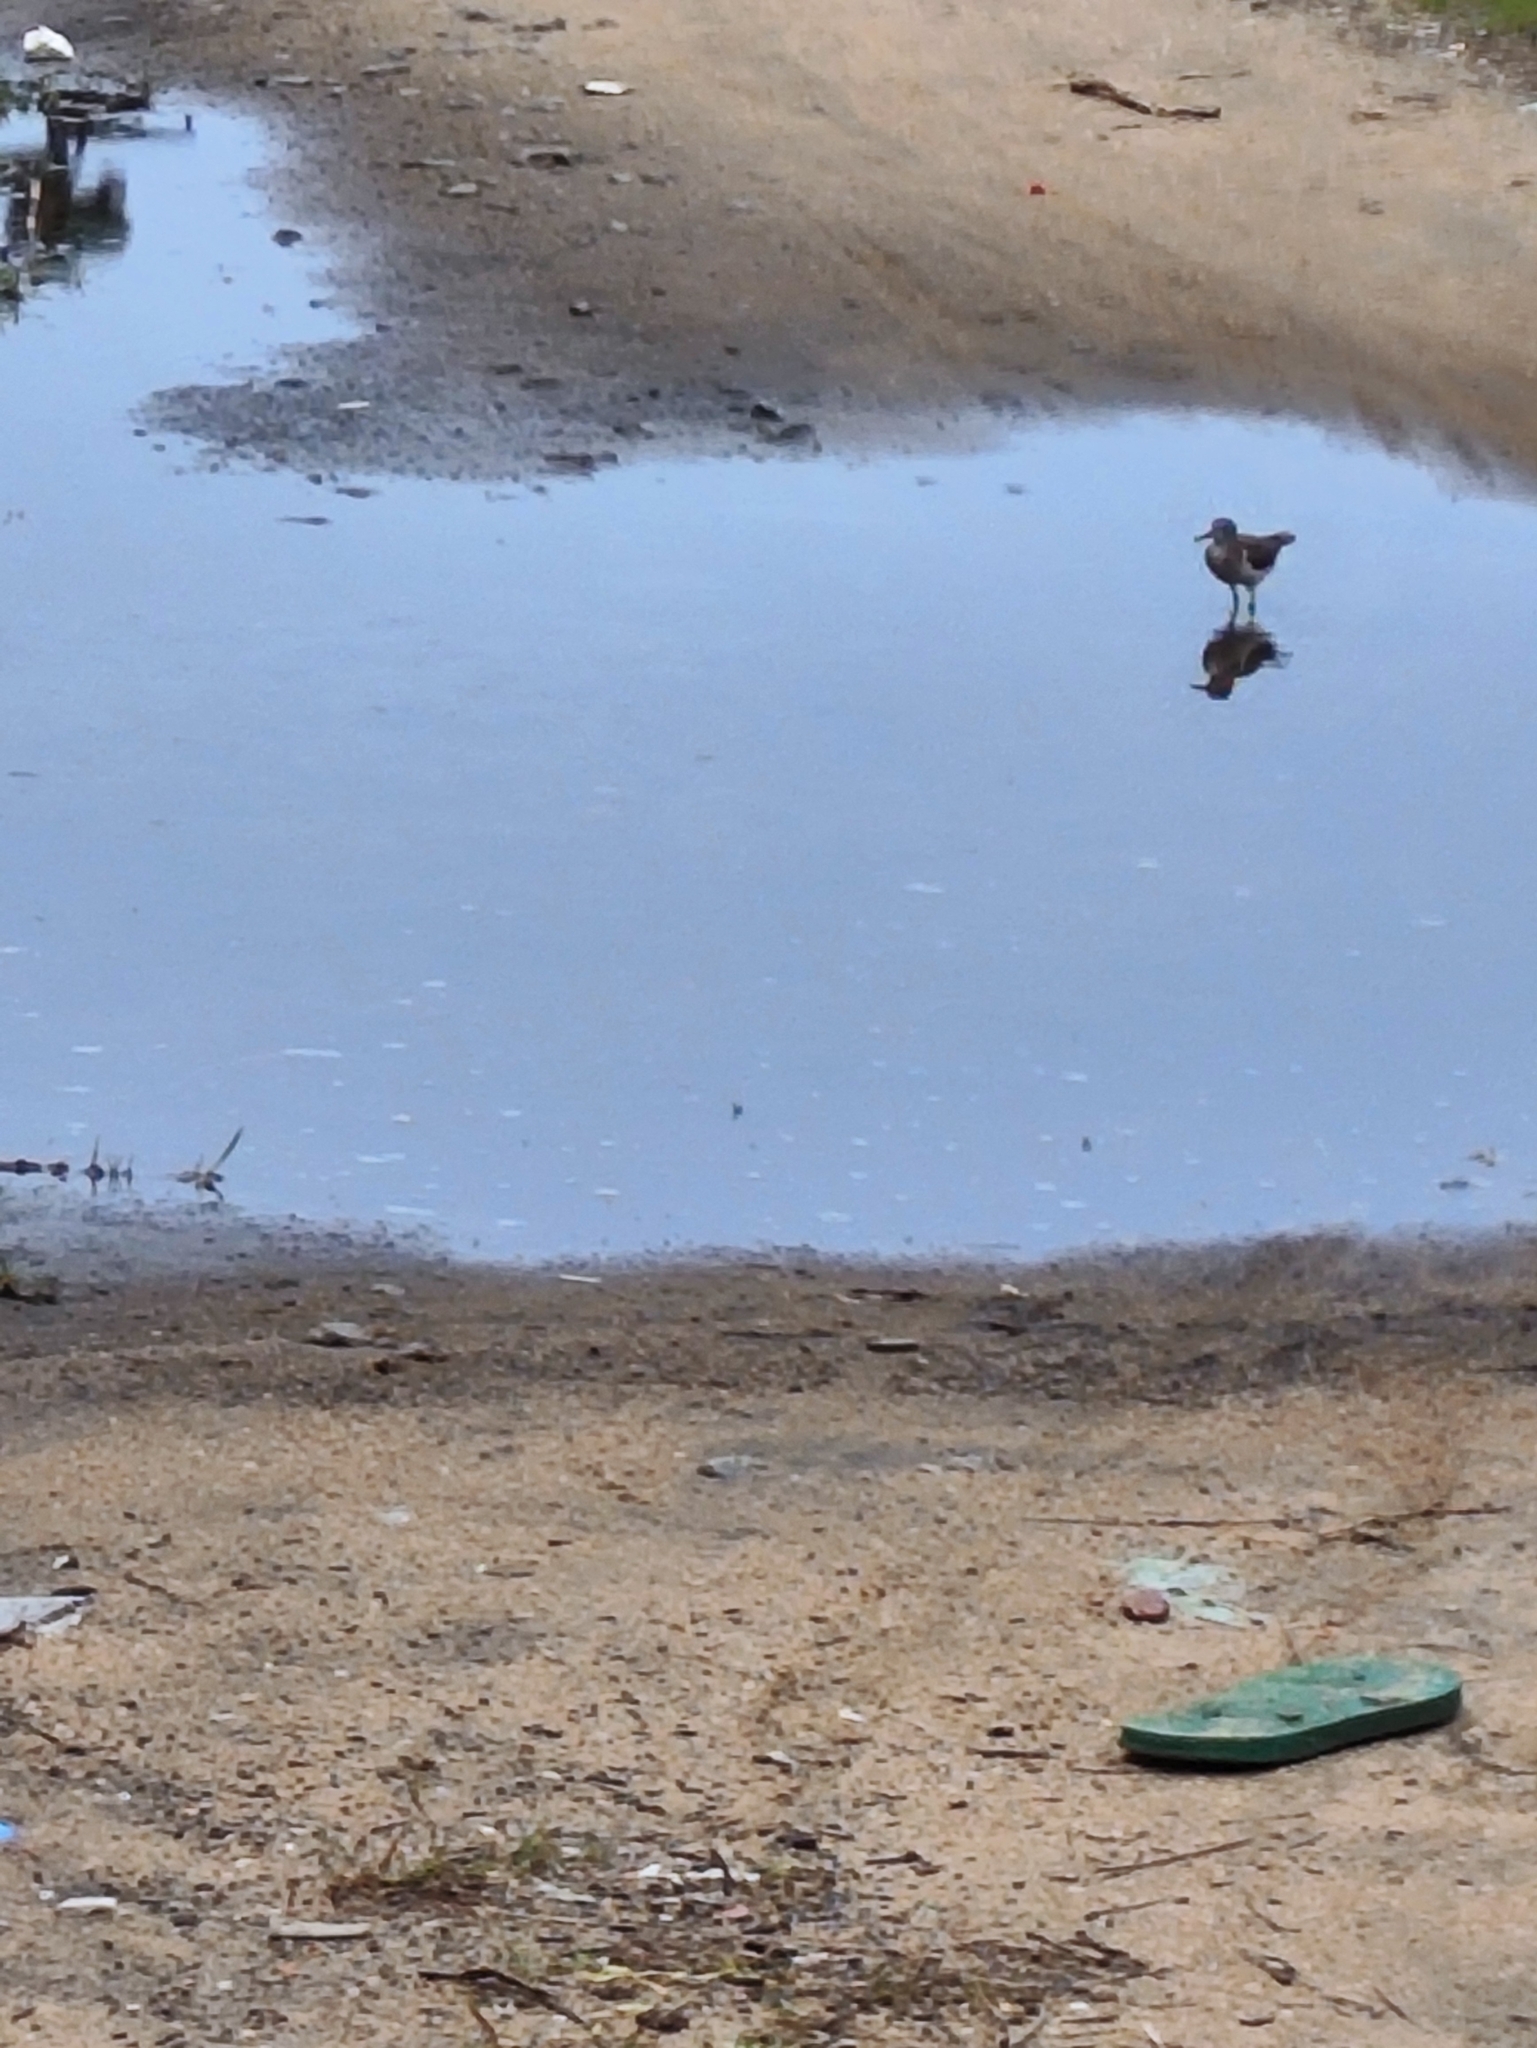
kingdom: Animalia
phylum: Chordata
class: Aves
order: Charadriiformes
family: Scolopacidae
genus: Actitis
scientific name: Actitis hypoleucos
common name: Common sandpiper
